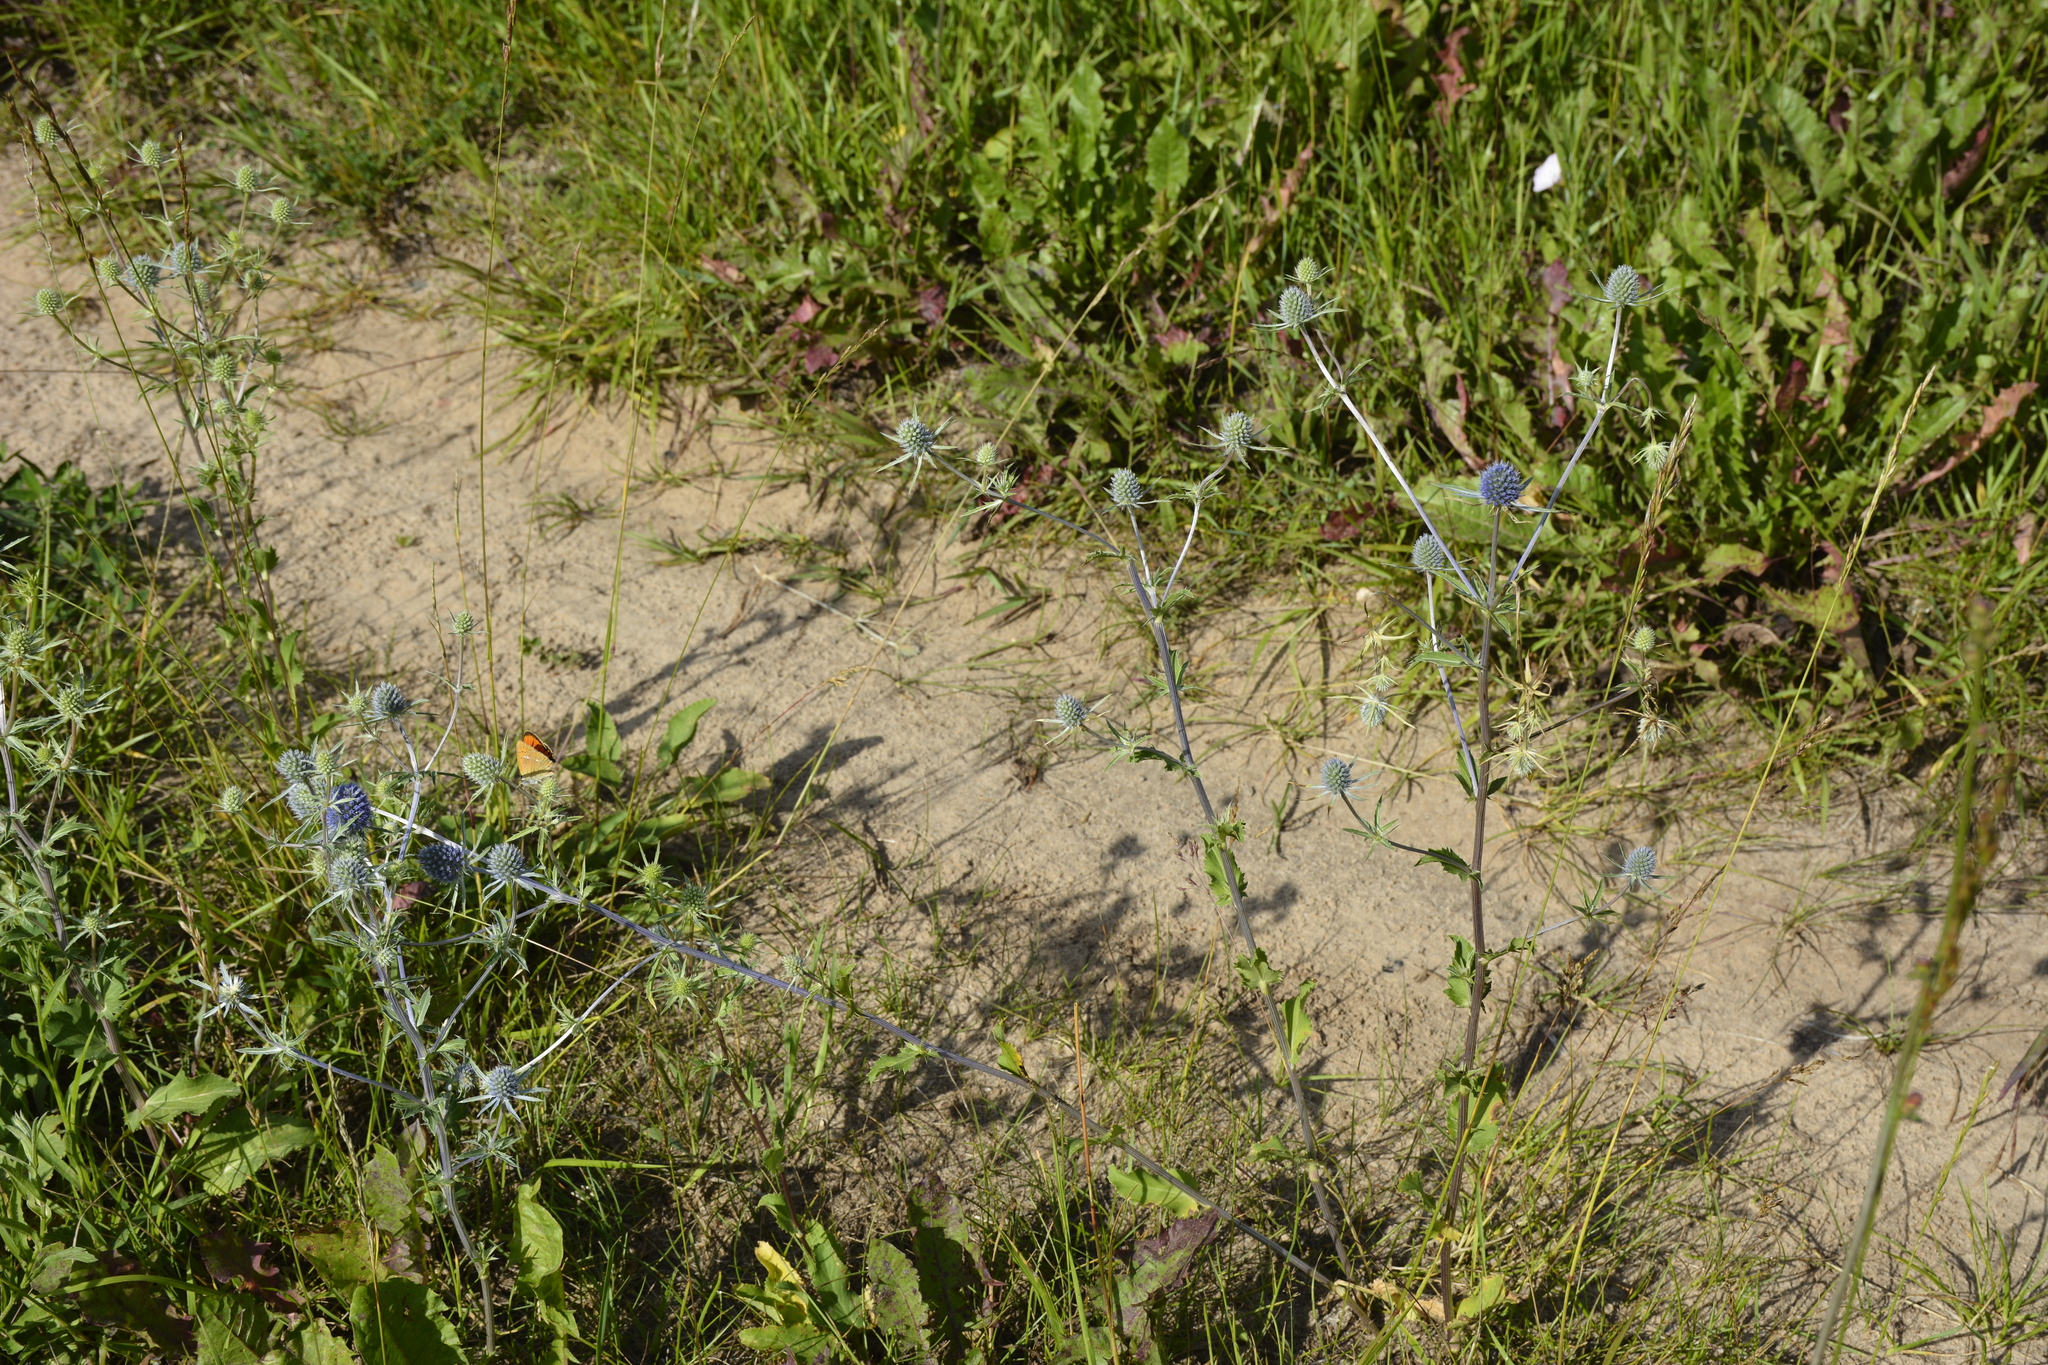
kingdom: Plantae
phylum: Tracheophyta
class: Magnoliopsida
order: Apiales
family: Apiaceae
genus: Eryngium
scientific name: Eryngium planum
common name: Blue eryngo
